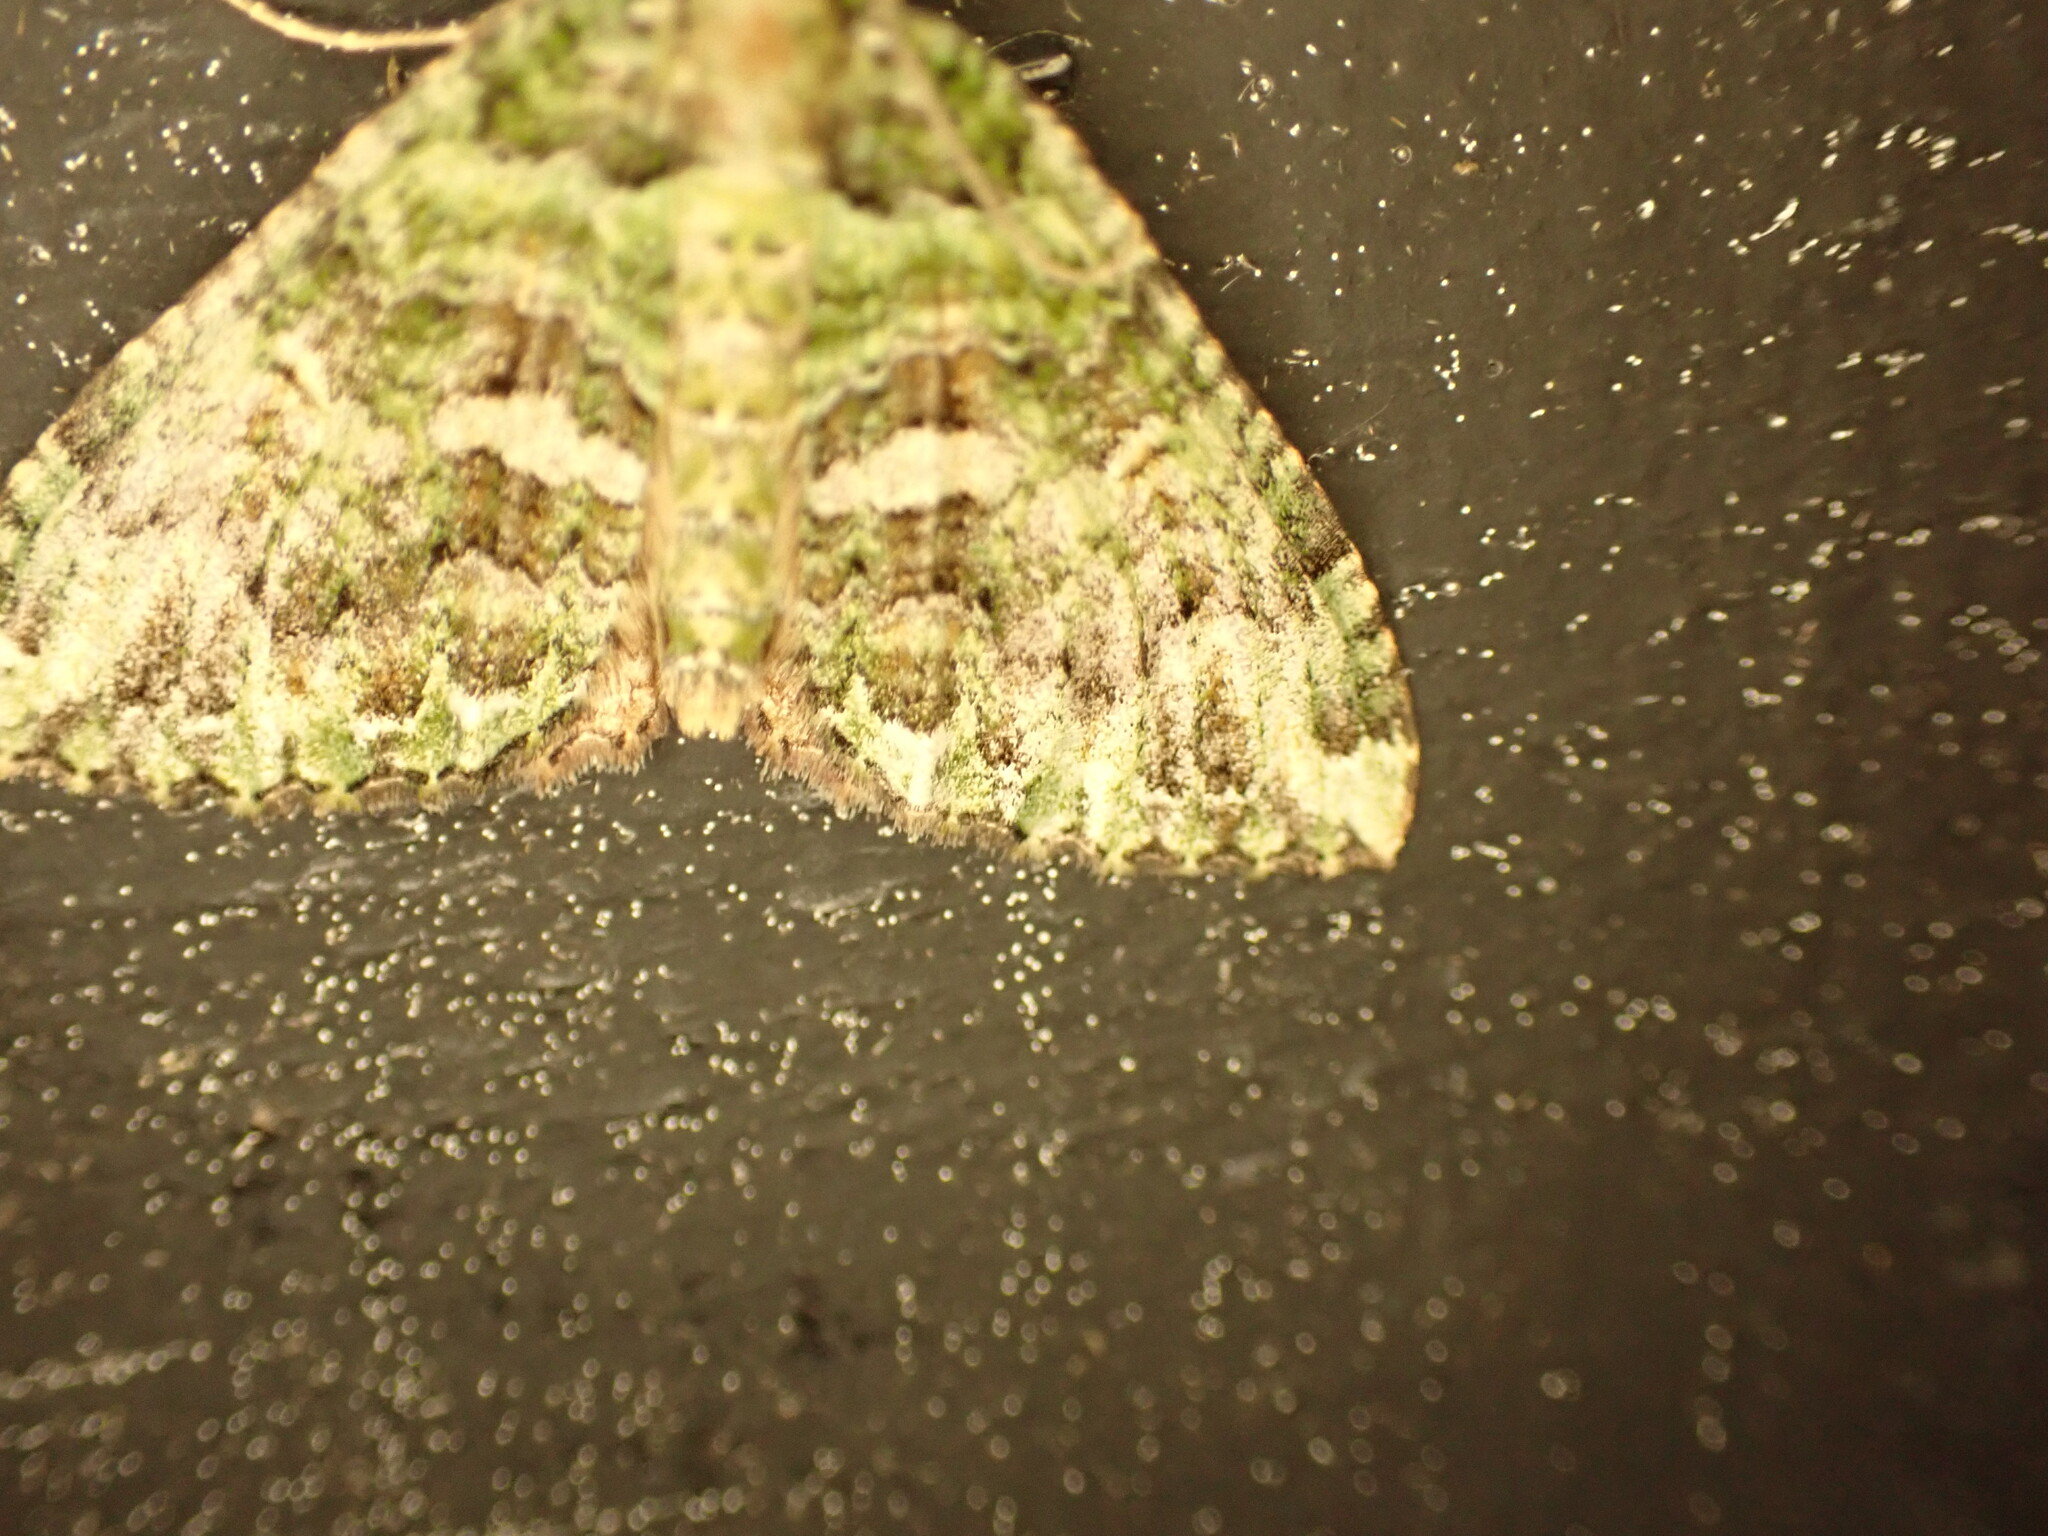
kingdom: Animalia
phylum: Arthropoda
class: Insecta
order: Lepidoptera
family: Geometridae
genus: Austrocidaria
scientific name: Austrocidaria similata
